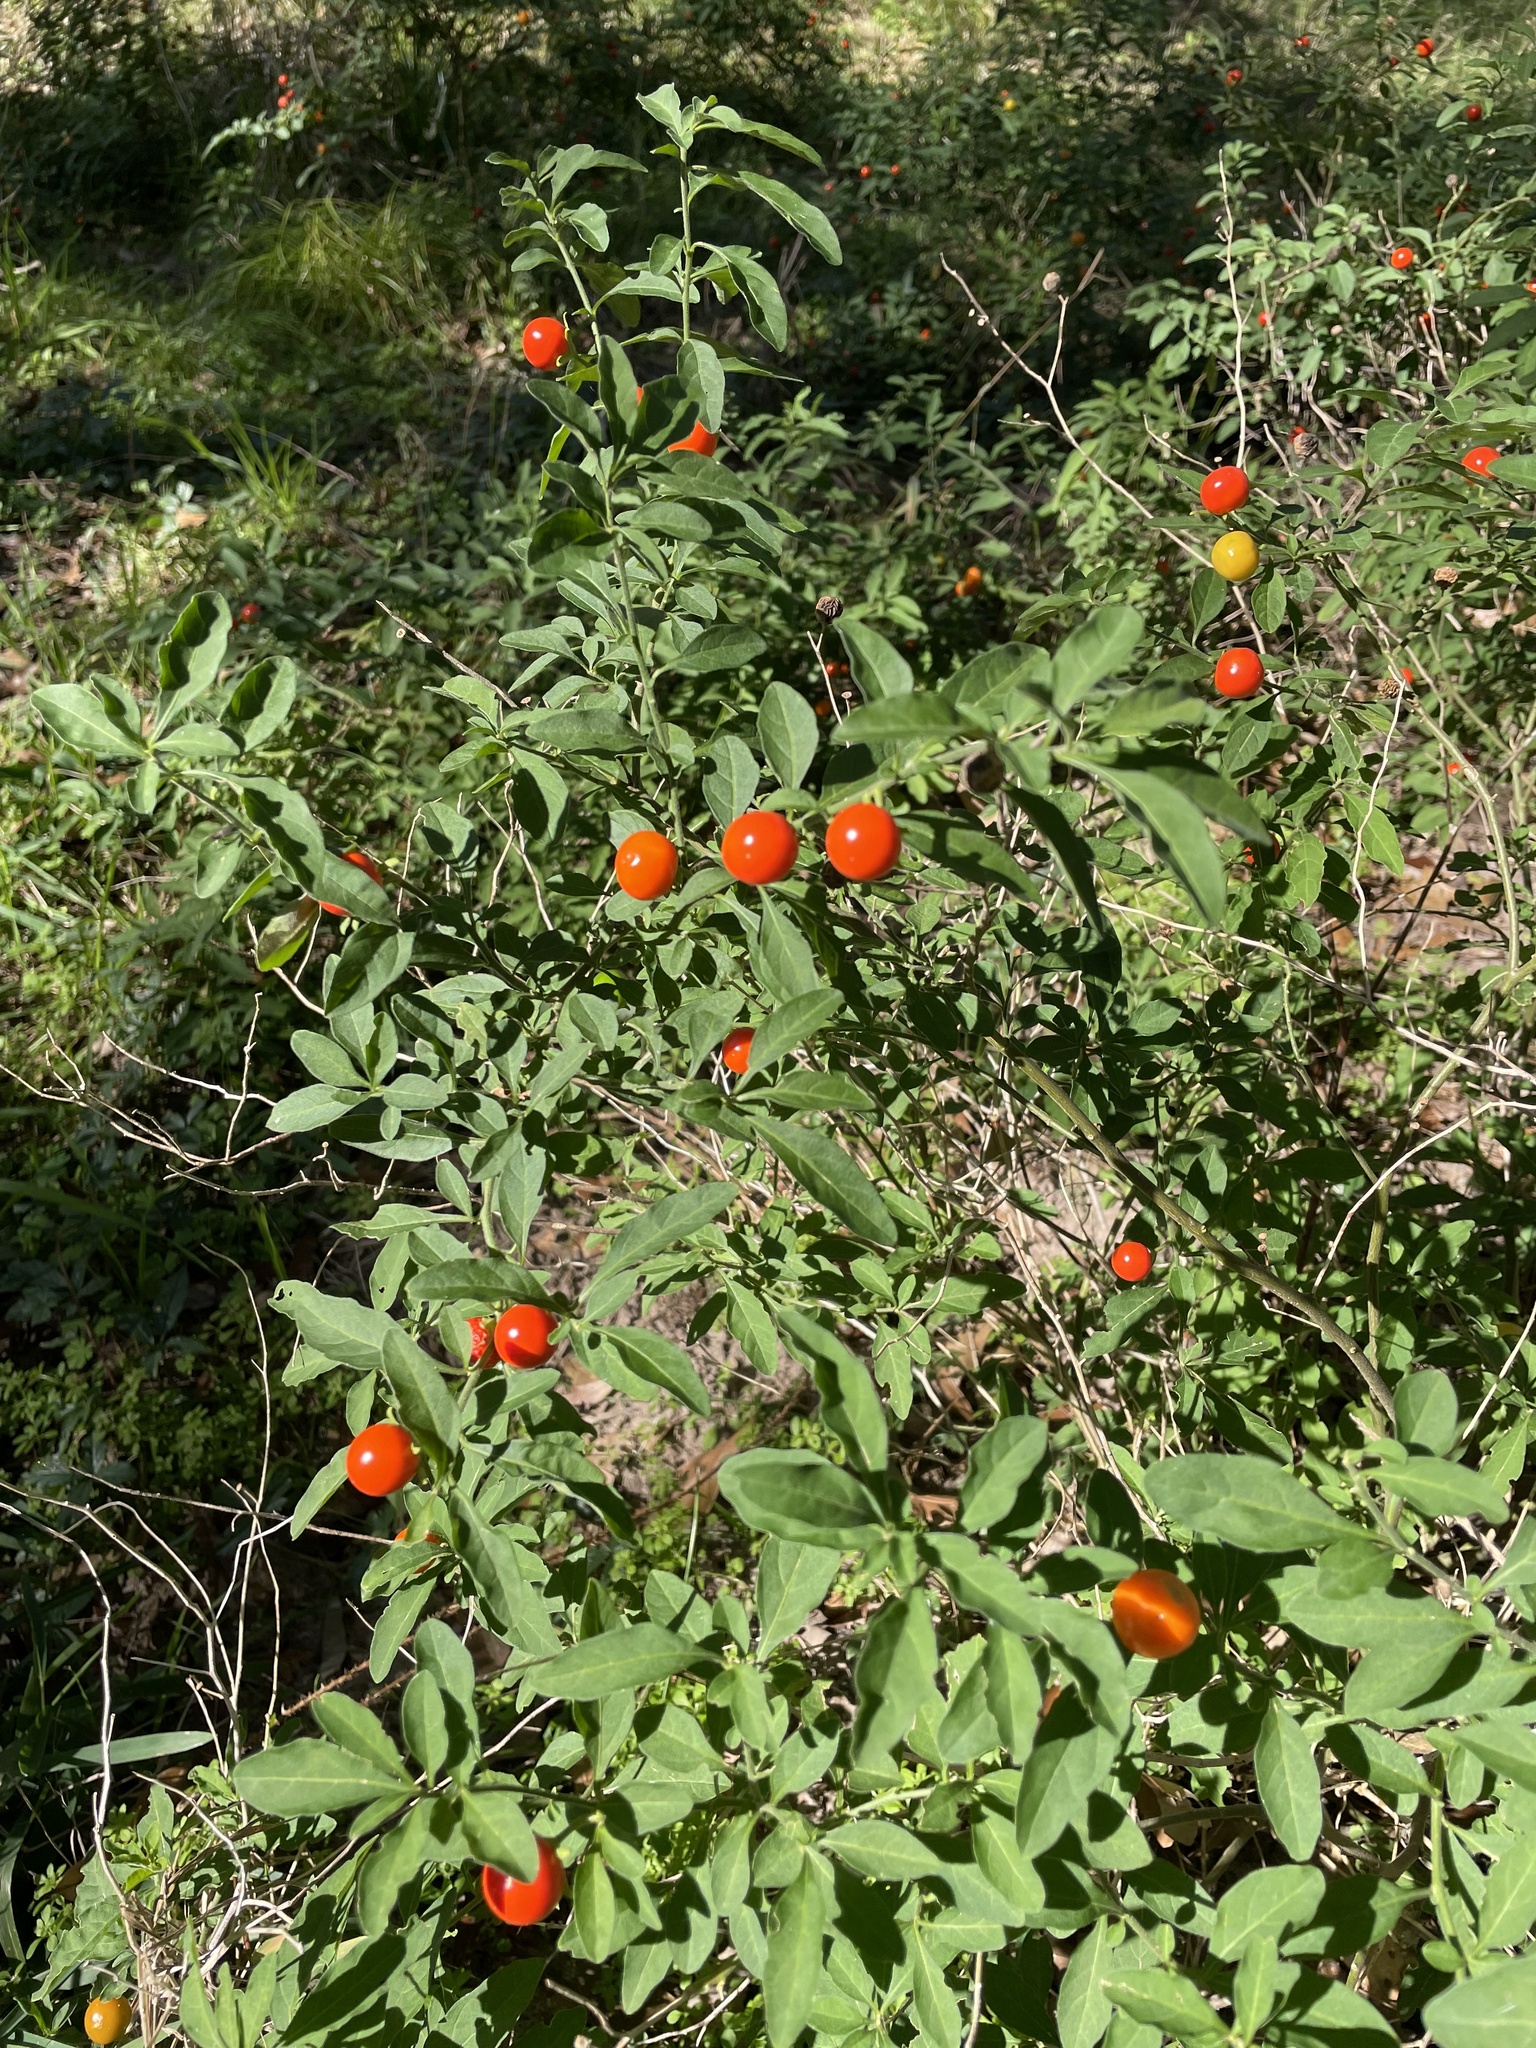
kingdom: Plantae
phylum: Tracheophyta
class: Magnoliopsida
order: Solanales
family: Solanaceae
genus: Solanum
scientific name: Solanum pseudocapsicum
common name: Jerusalem cherry
